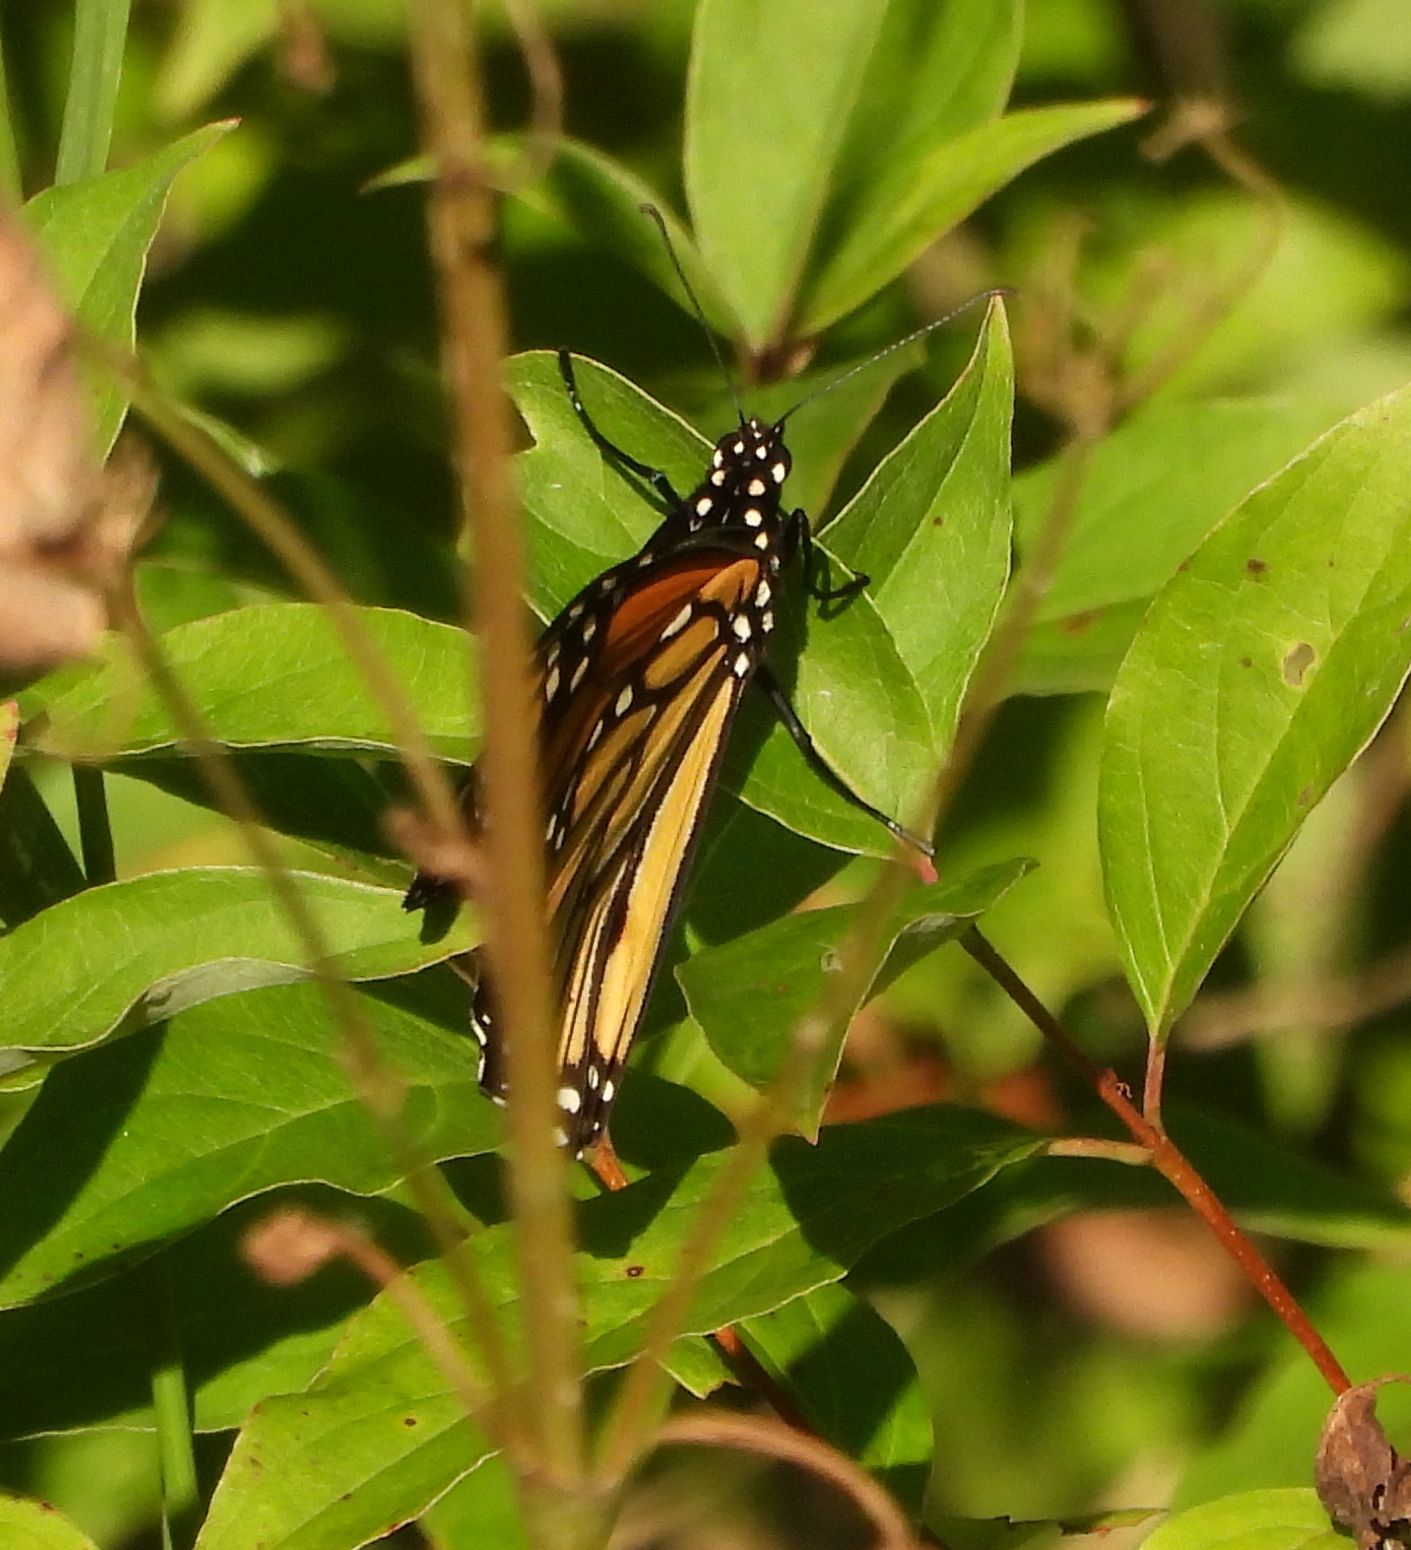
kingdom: Animalia
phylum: Arthropoda
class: Insecta
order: Lepidoptera
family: Nymphalidae
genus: Danaus
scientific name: Danaus plexippus
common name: Monarch
